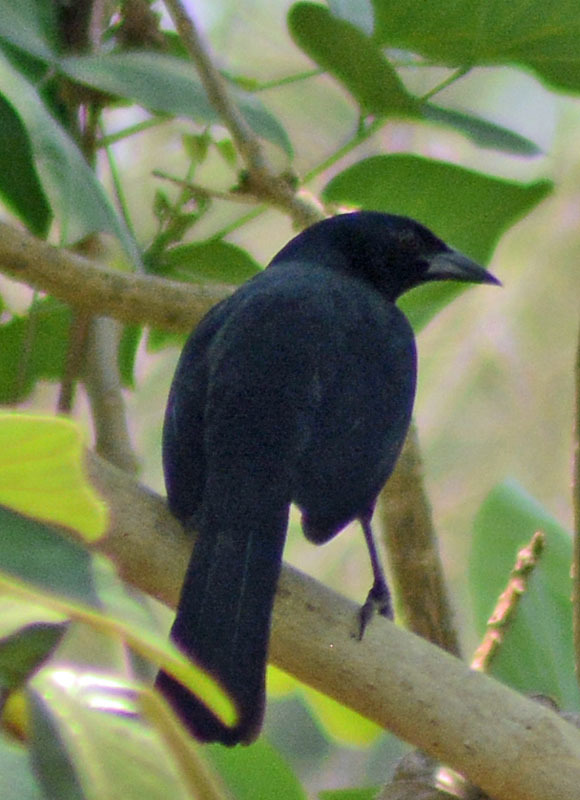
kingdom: Animalia
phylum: Chordata
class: Aves
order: Passeriformes
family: Icteridae
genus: Dives
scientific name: Dives dives
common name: Melodious blackbird
